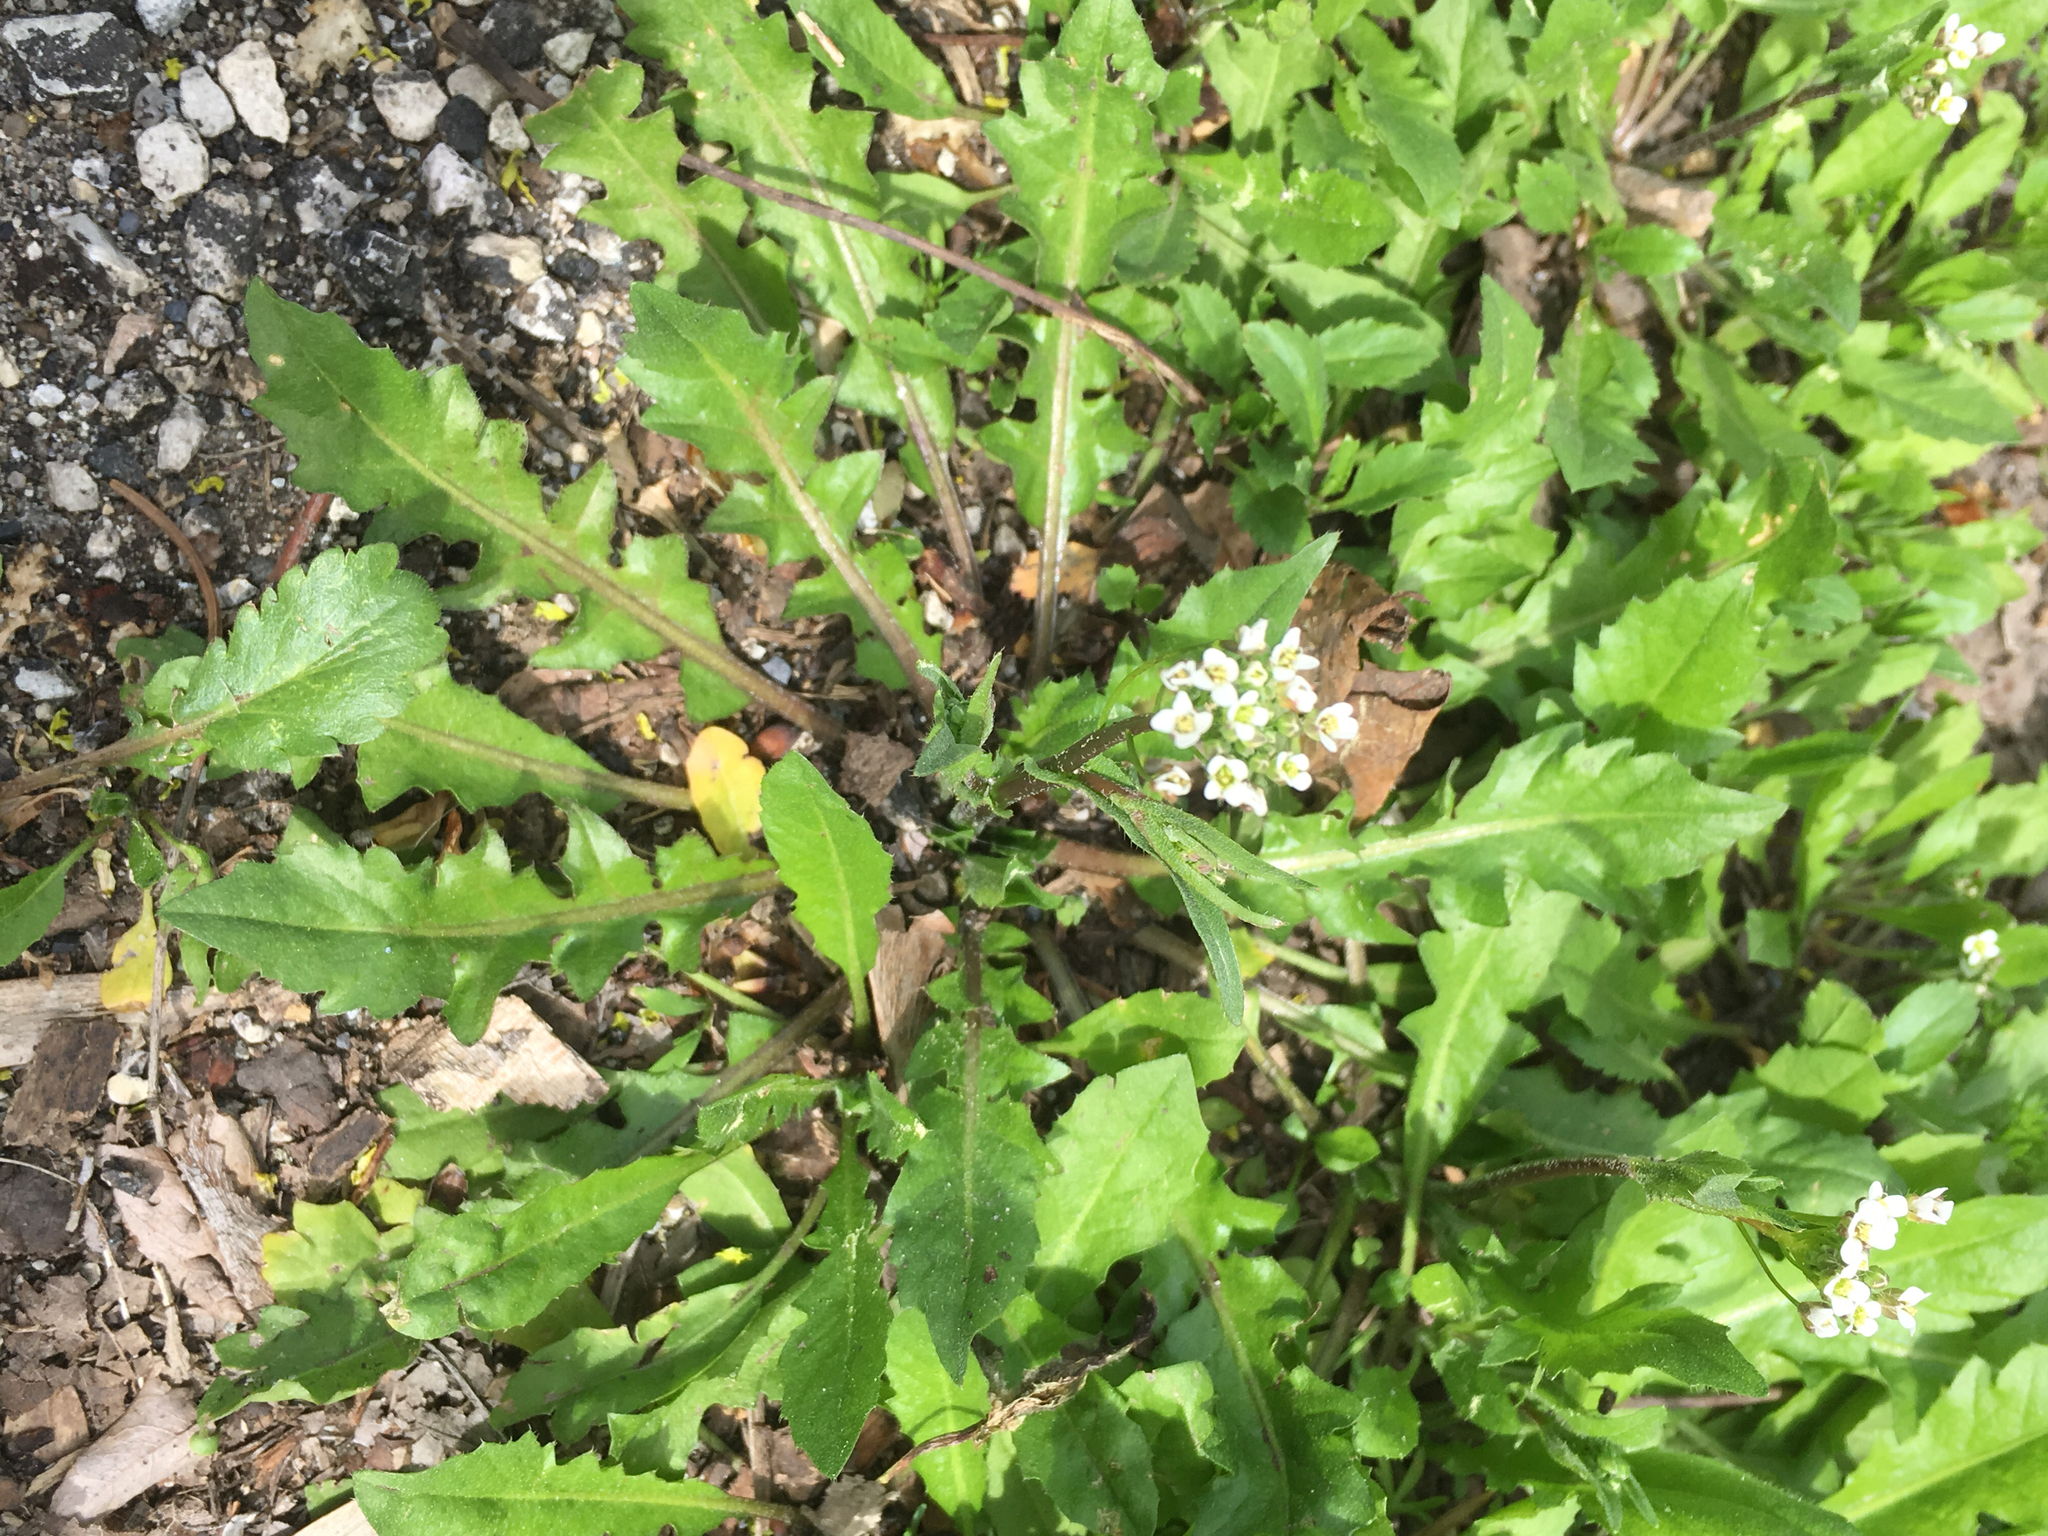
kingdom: Plantae
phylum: Tracheophyta
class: Magnoliopsida
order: Brassicales
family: Brassicaceae
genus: Capsella
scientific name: Capsella bursa-pastoris
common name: Shepherd's purse
